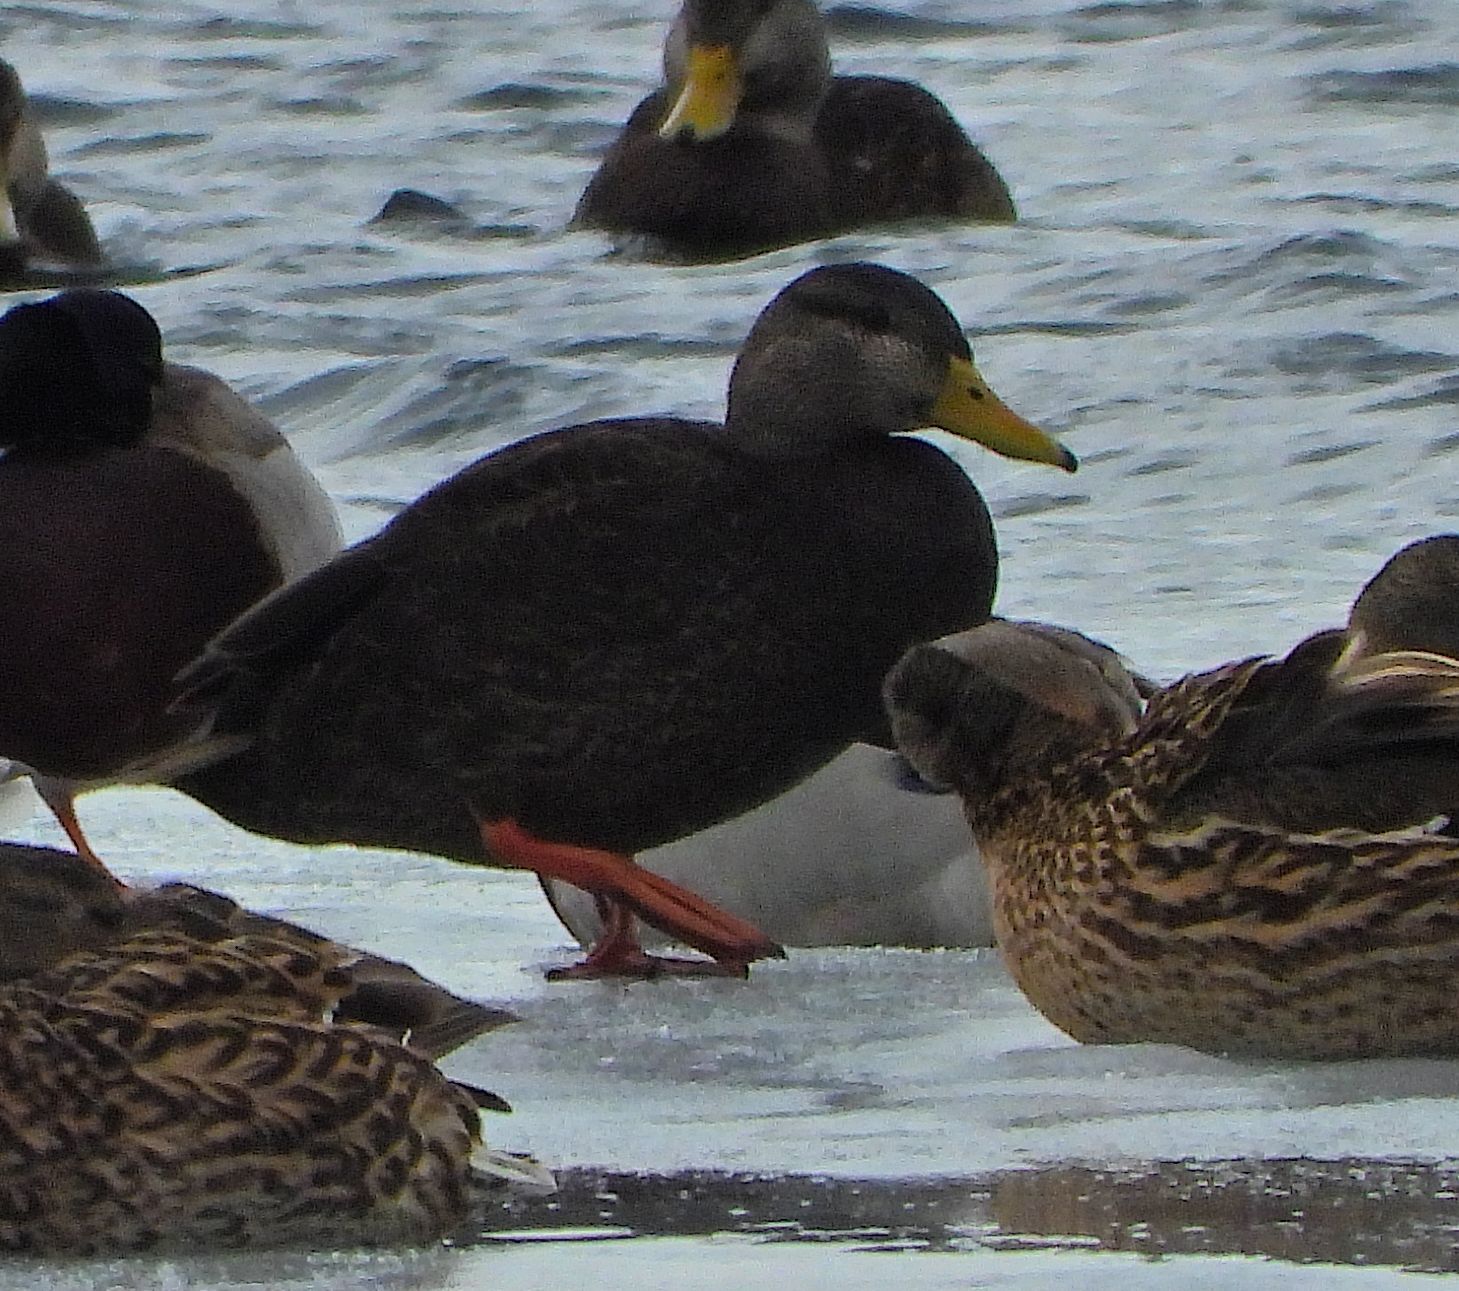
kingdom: Animalia
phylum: Chordata
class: Aves
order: Anseriformes
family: Anatidae
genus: Anas
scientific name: Anas rubripes
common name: American black duck
